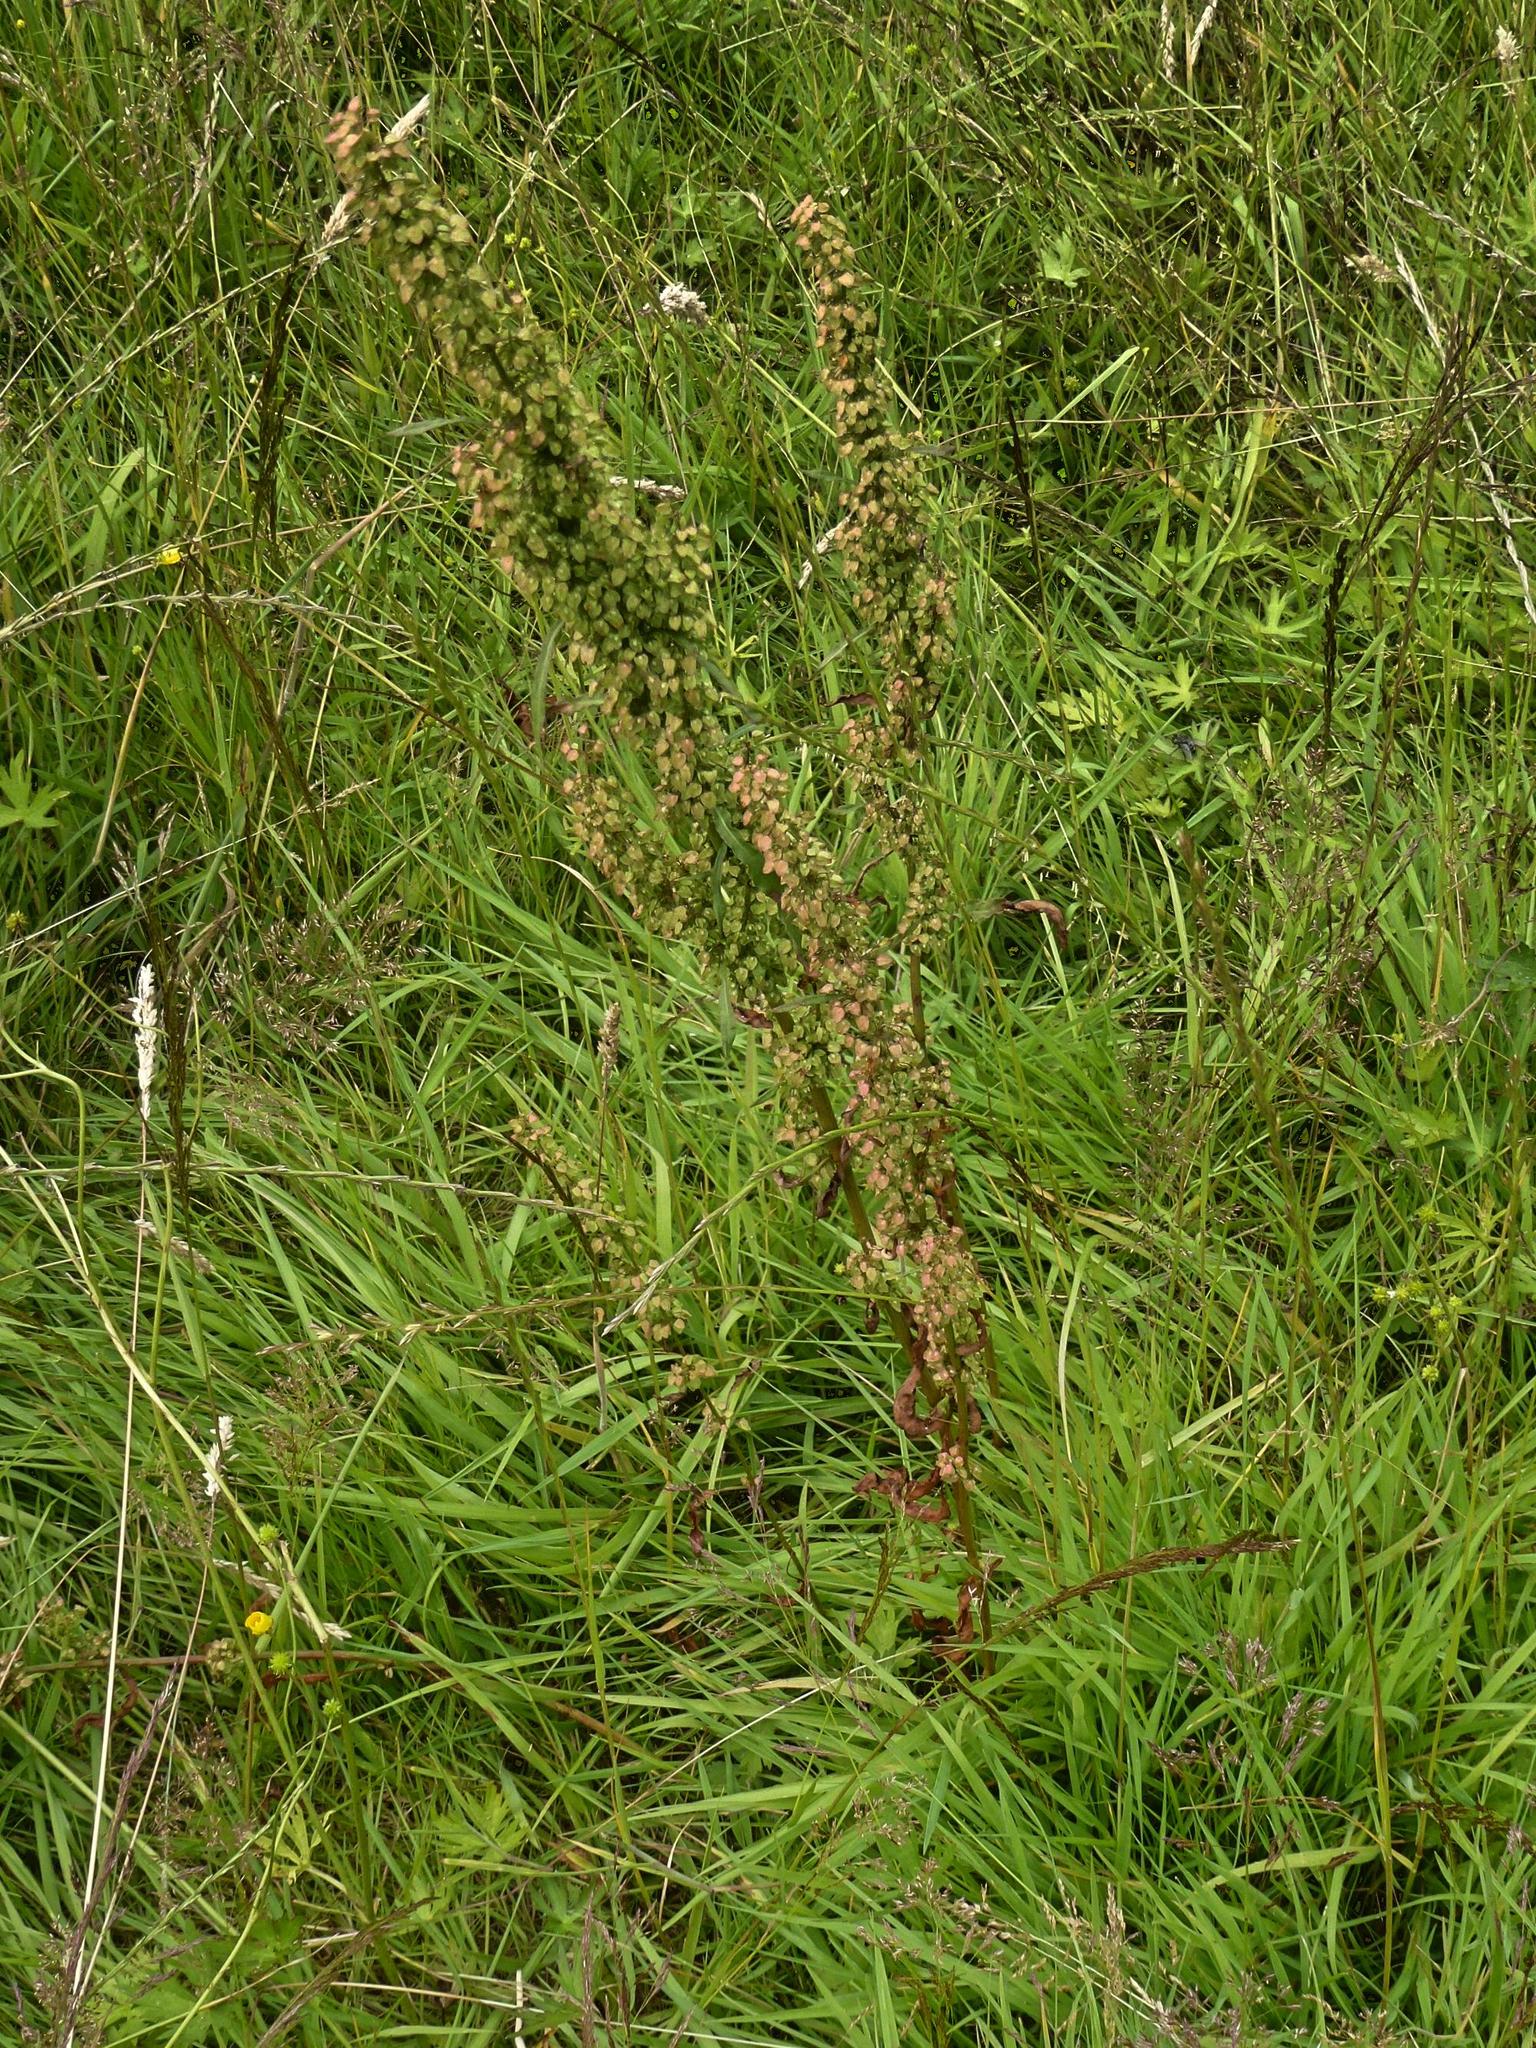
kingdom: Plantae
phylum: Tracheophyta
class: Magnoliopsida
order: Caryophyllales
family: Polygonaceae
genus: Rumex
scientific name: Rumex crispus
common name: Curled dock
